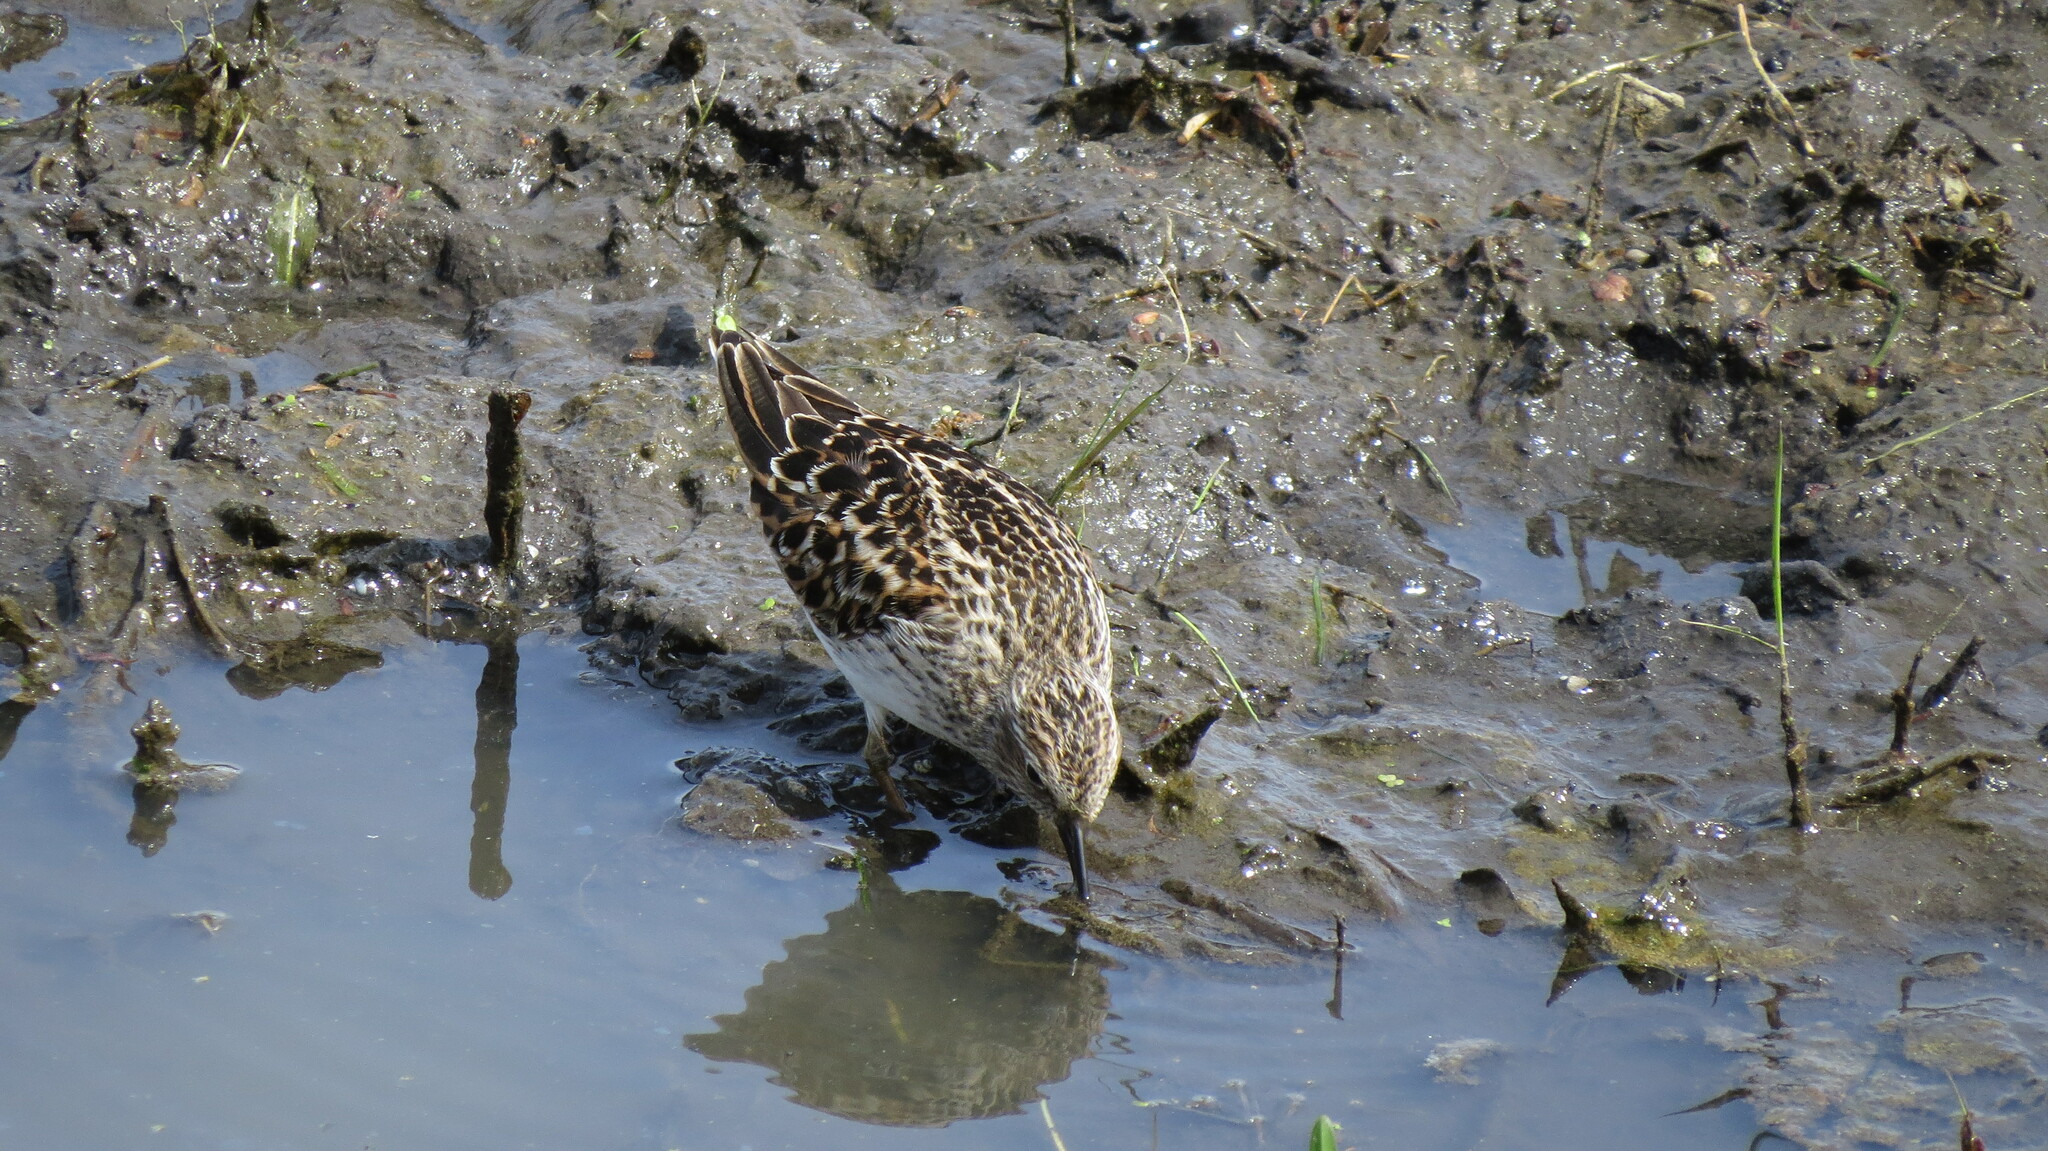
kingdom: Animalia
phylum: Chordata
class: Aves
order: Charadriiformes
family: Scolopacidae
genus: Calidris
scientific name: Calidris minutilla
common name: Least sandpiper
